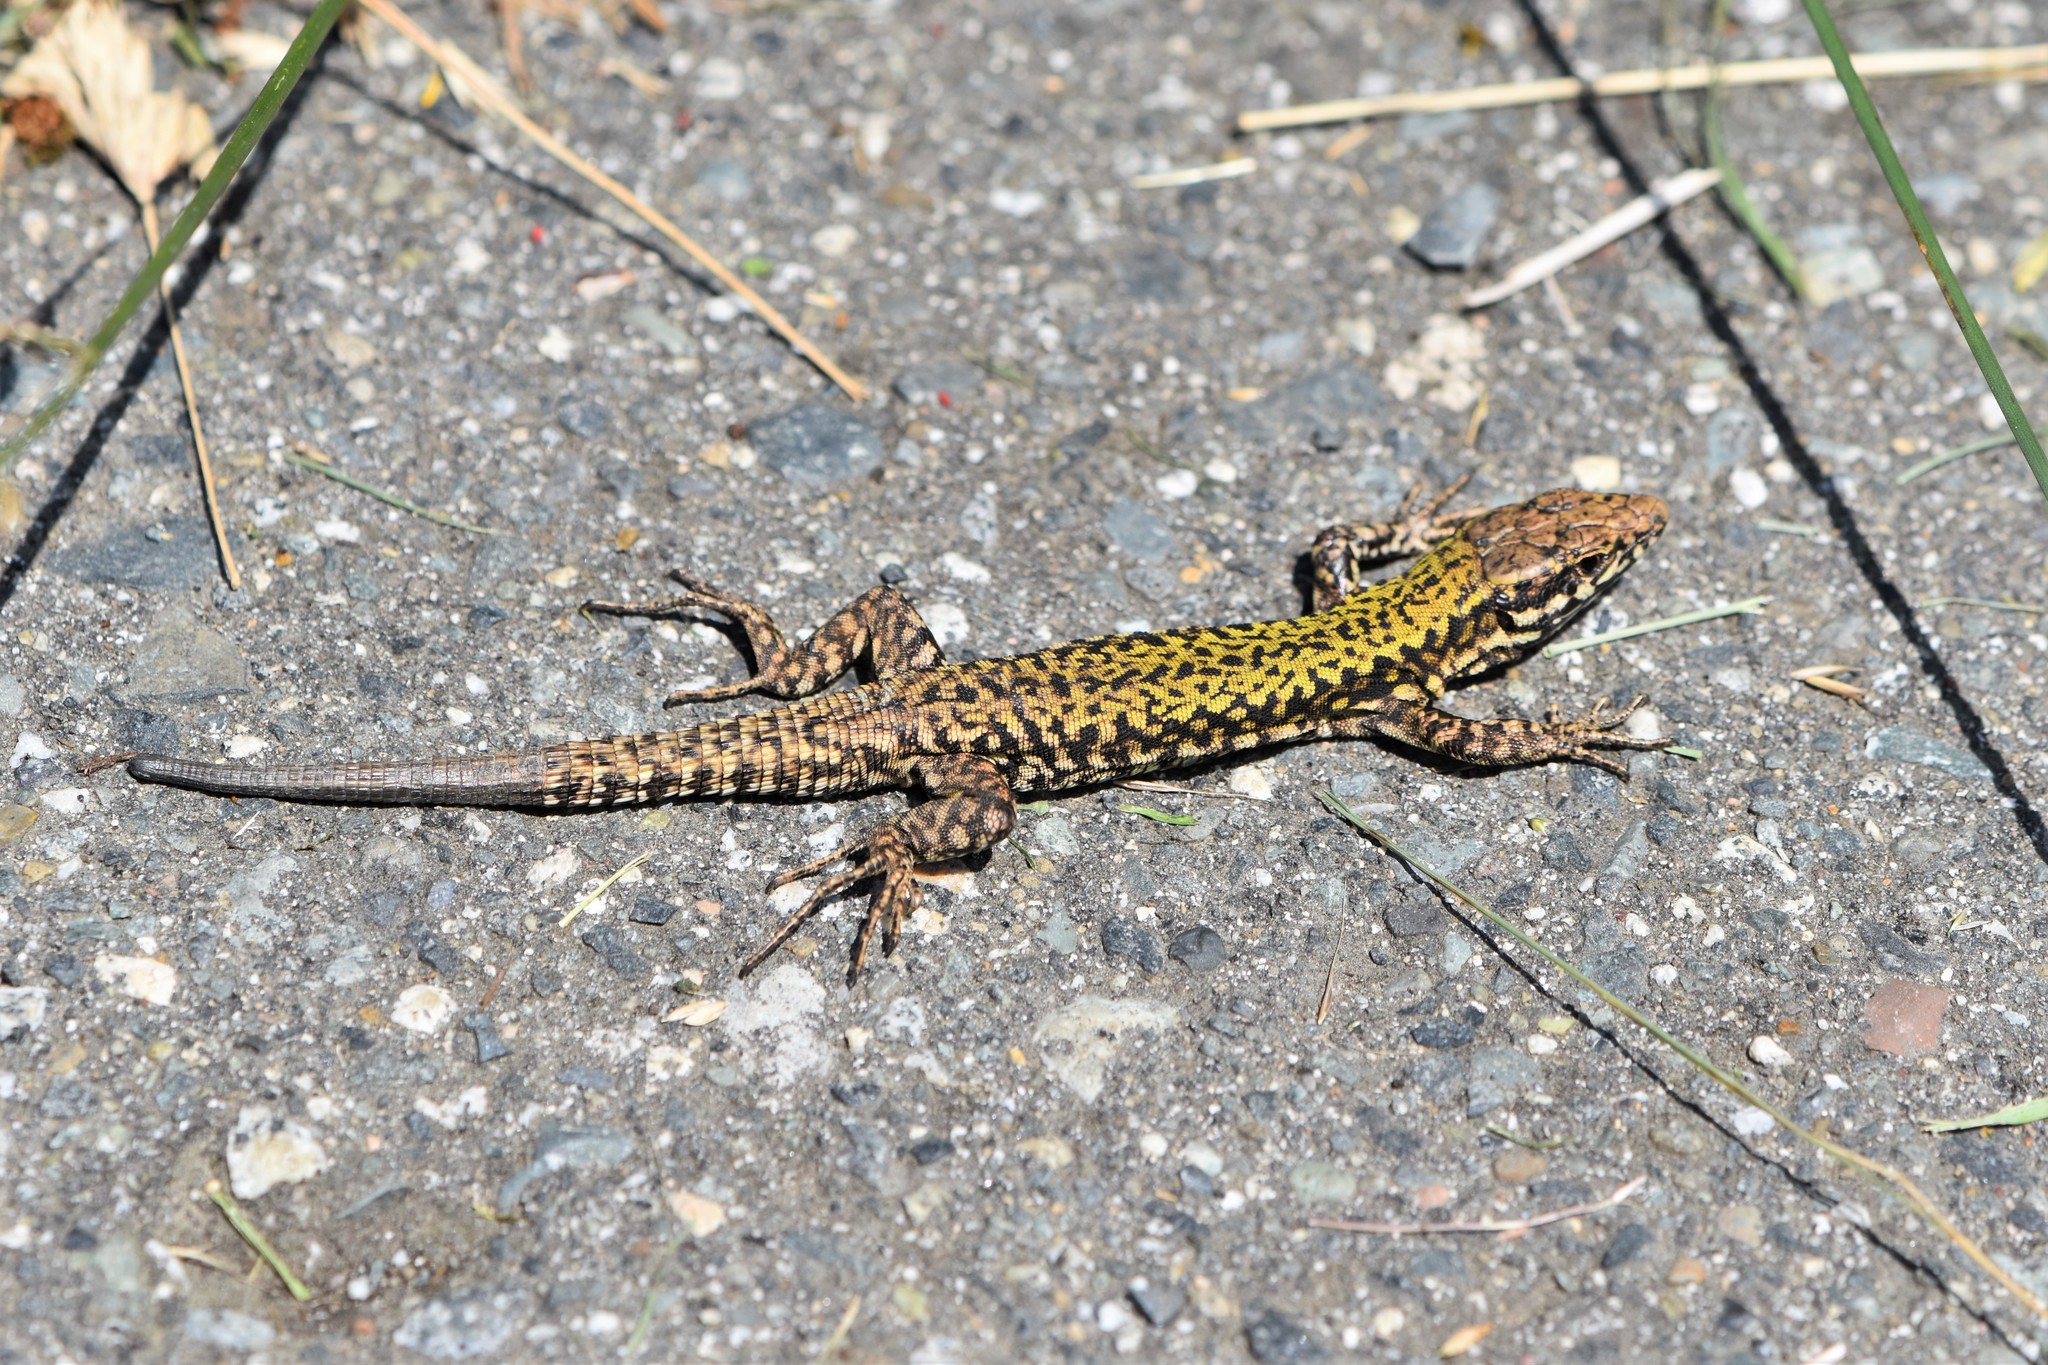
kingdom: Animalia
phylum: Chordata
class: Squamata
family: Lacertidae
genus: Podarcis
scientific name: Podarcis muralis
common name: Common wall lizard
